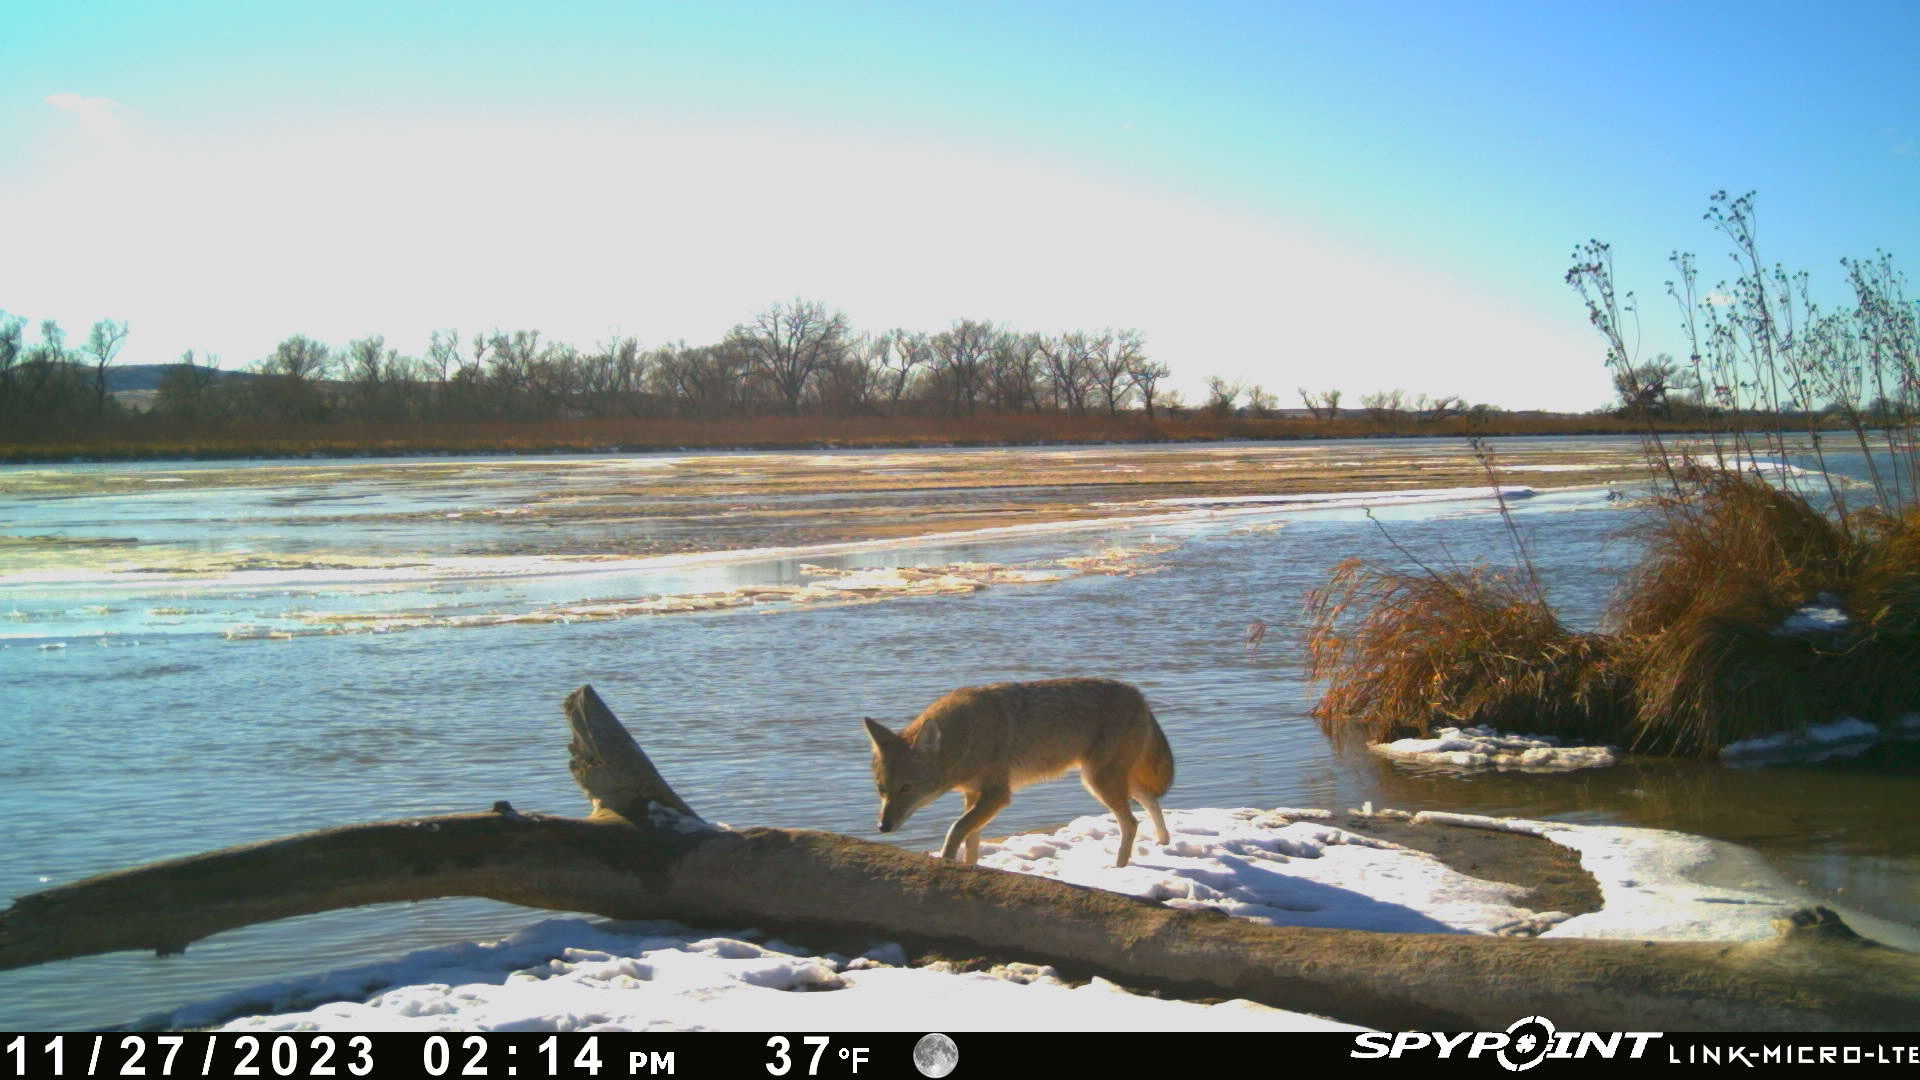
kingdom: Animalia
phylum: Chordata
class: Mammalia
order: Carnivora
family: Canidae
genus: Canis
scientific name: Canis latrans
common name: Coyote
